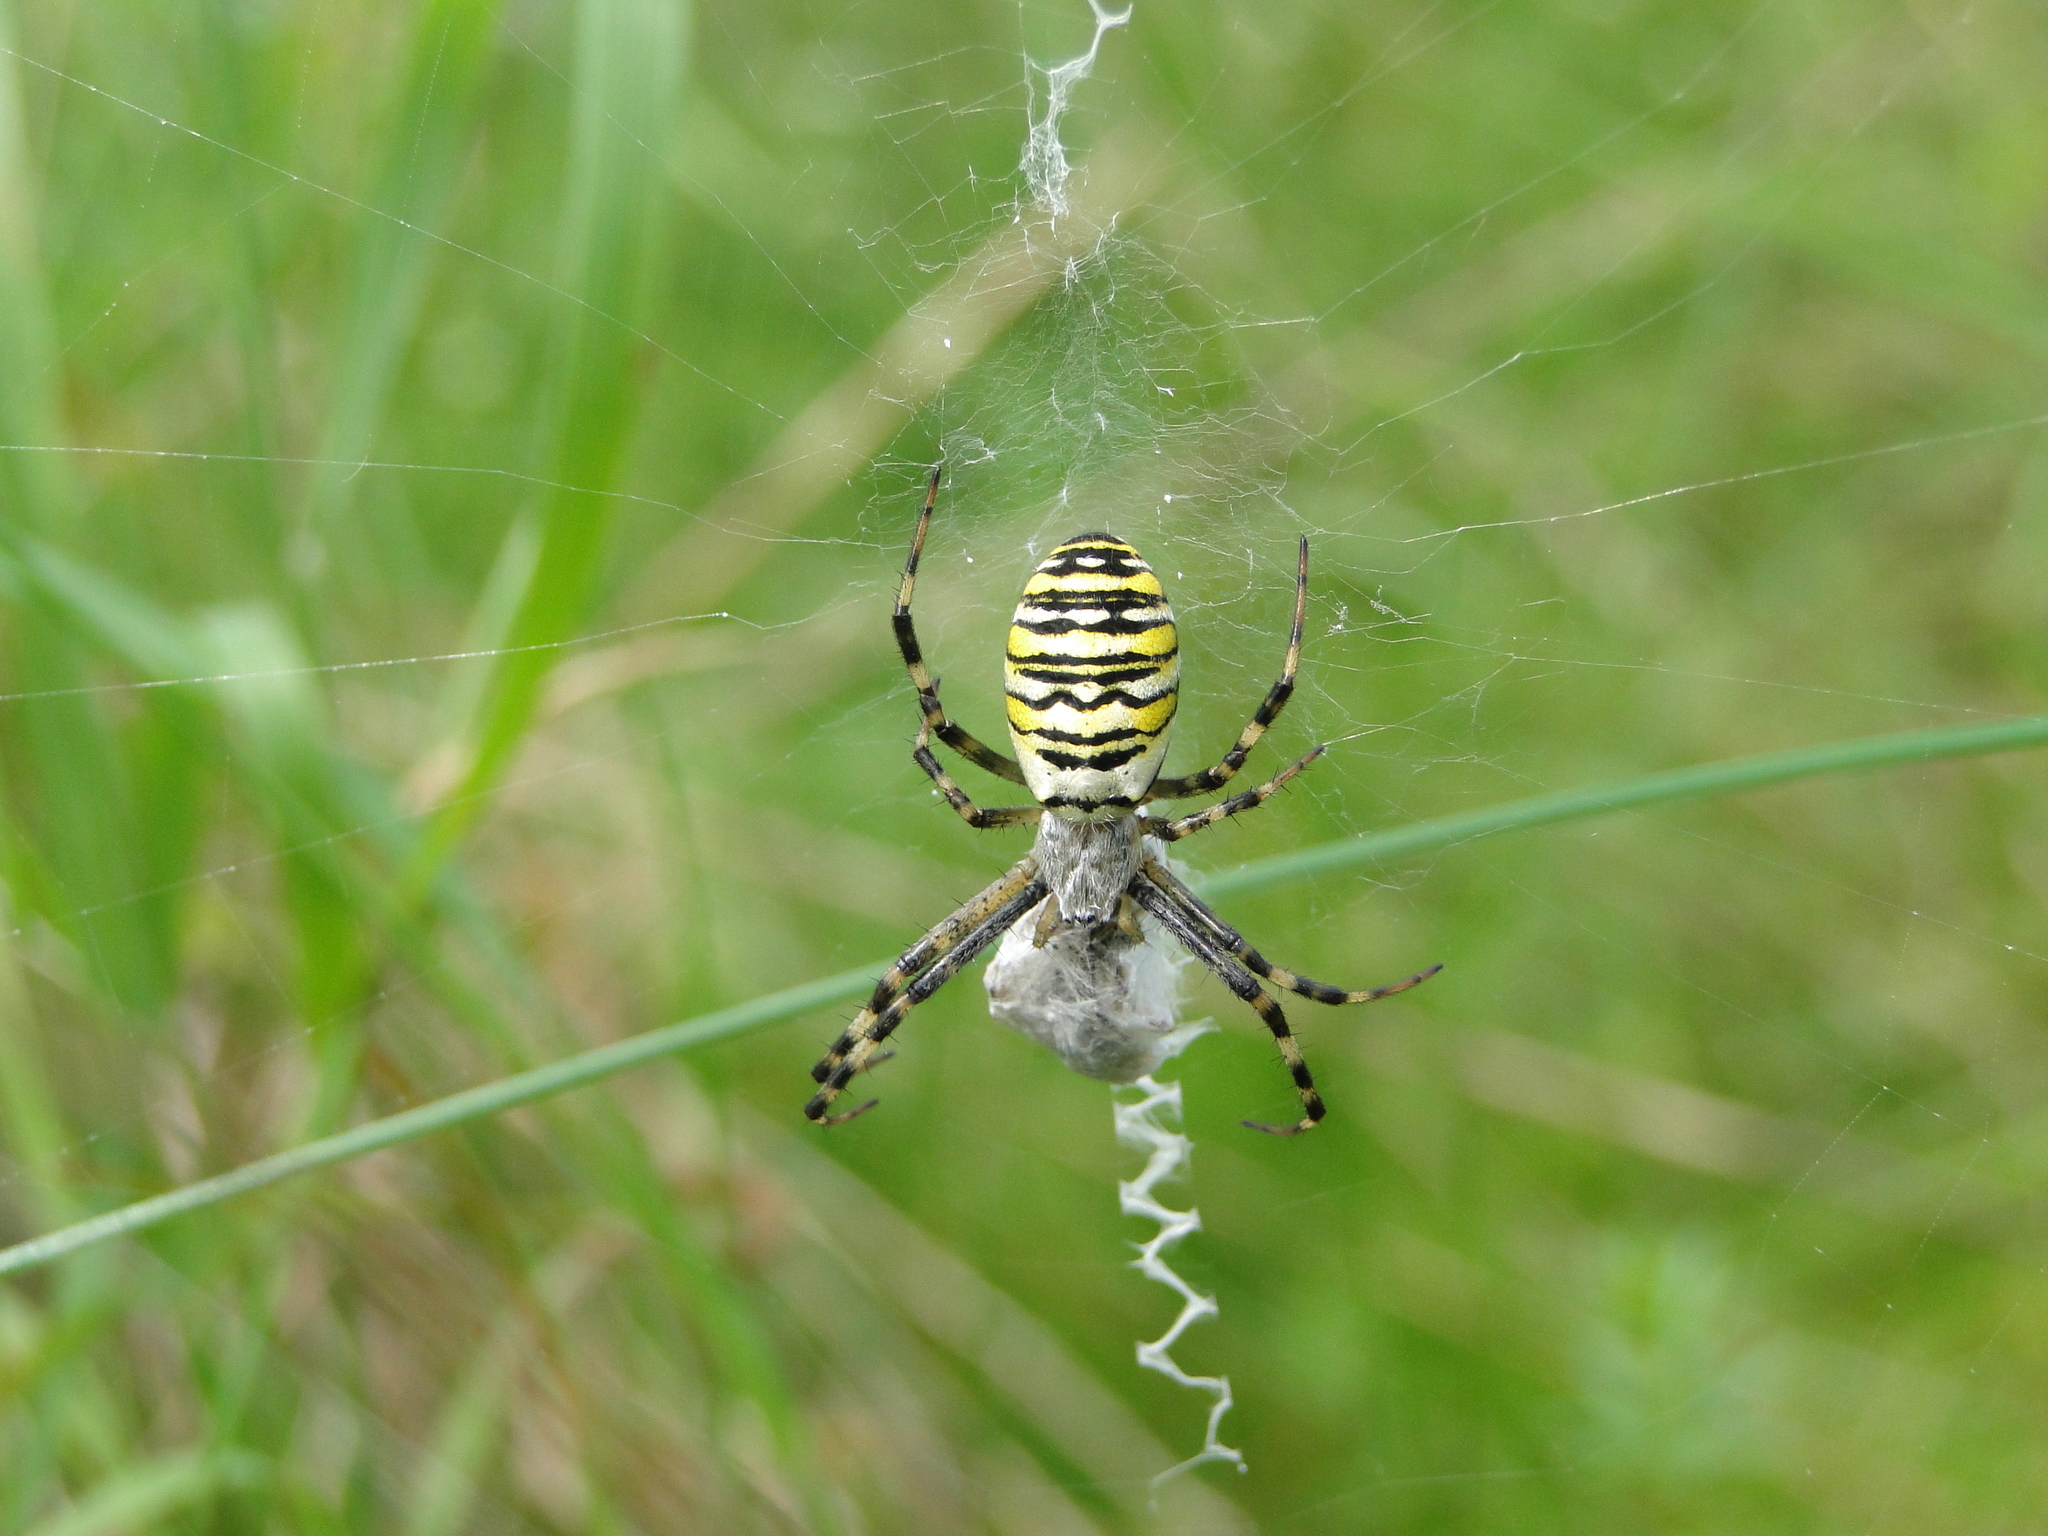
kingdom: Animalia
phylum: Arthropoda
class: Arachnida
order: Araneae
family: Araneidae
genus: Argiope
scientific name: Argiope bruennichi
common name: Wasp spider
